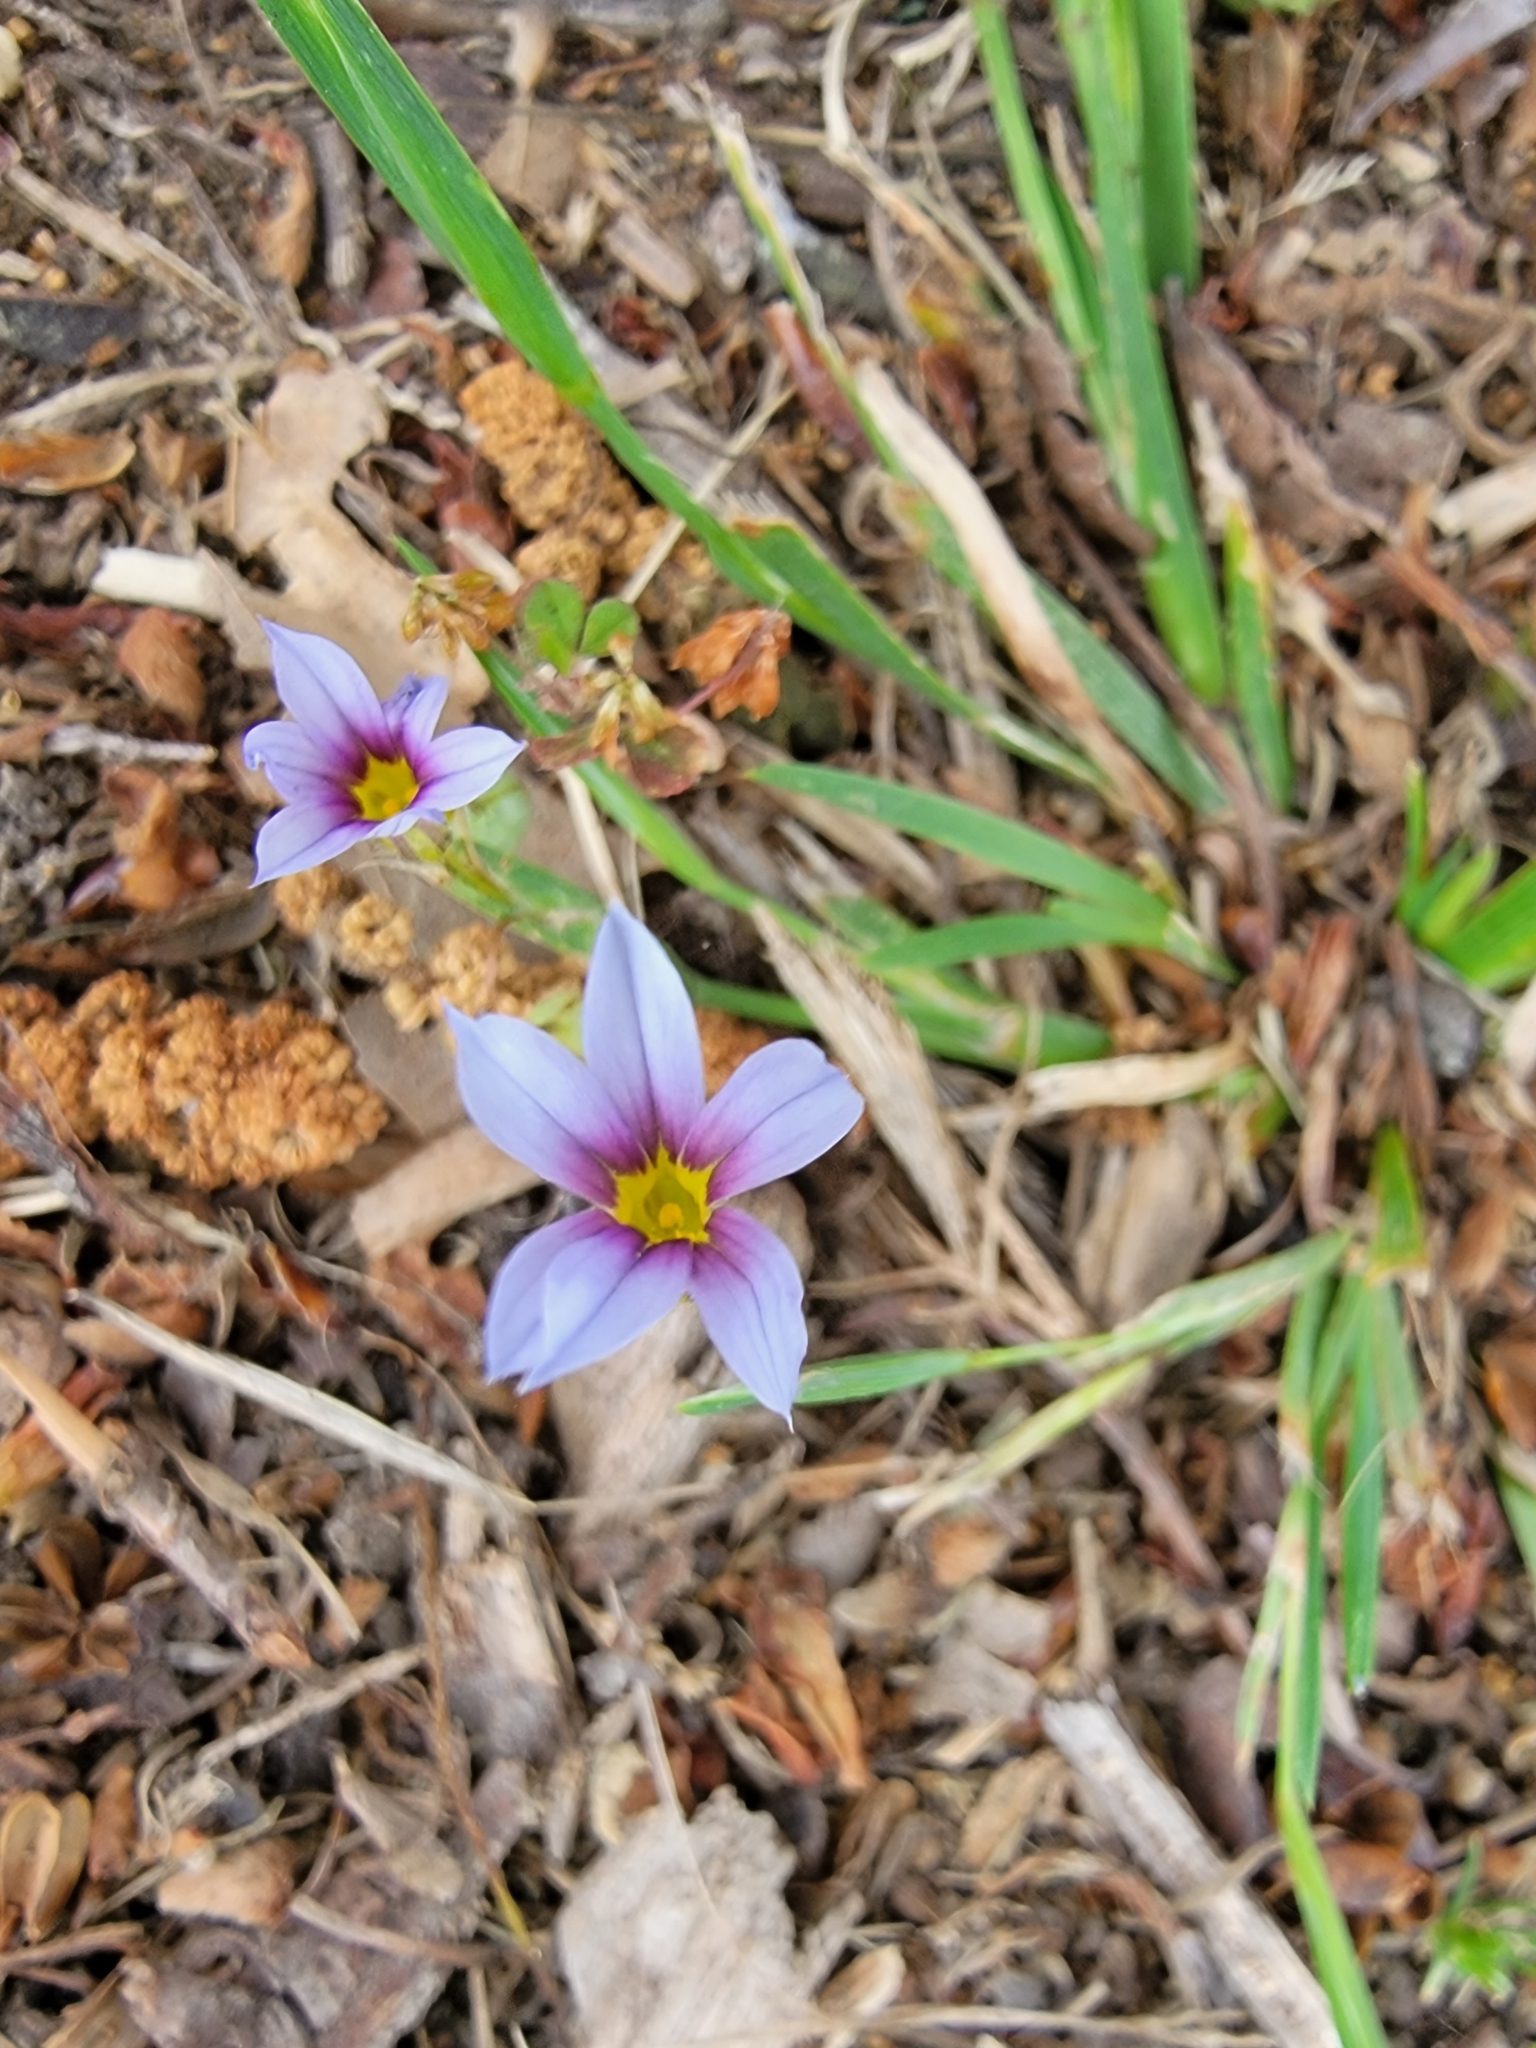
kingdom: Plantae
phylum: Tracheophyta
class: Liliopsida
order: Asparagales
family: Iridaceae
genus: Sisyrinchium
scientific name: Sisyrinchium micranthum
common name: Bermuda pigroot
